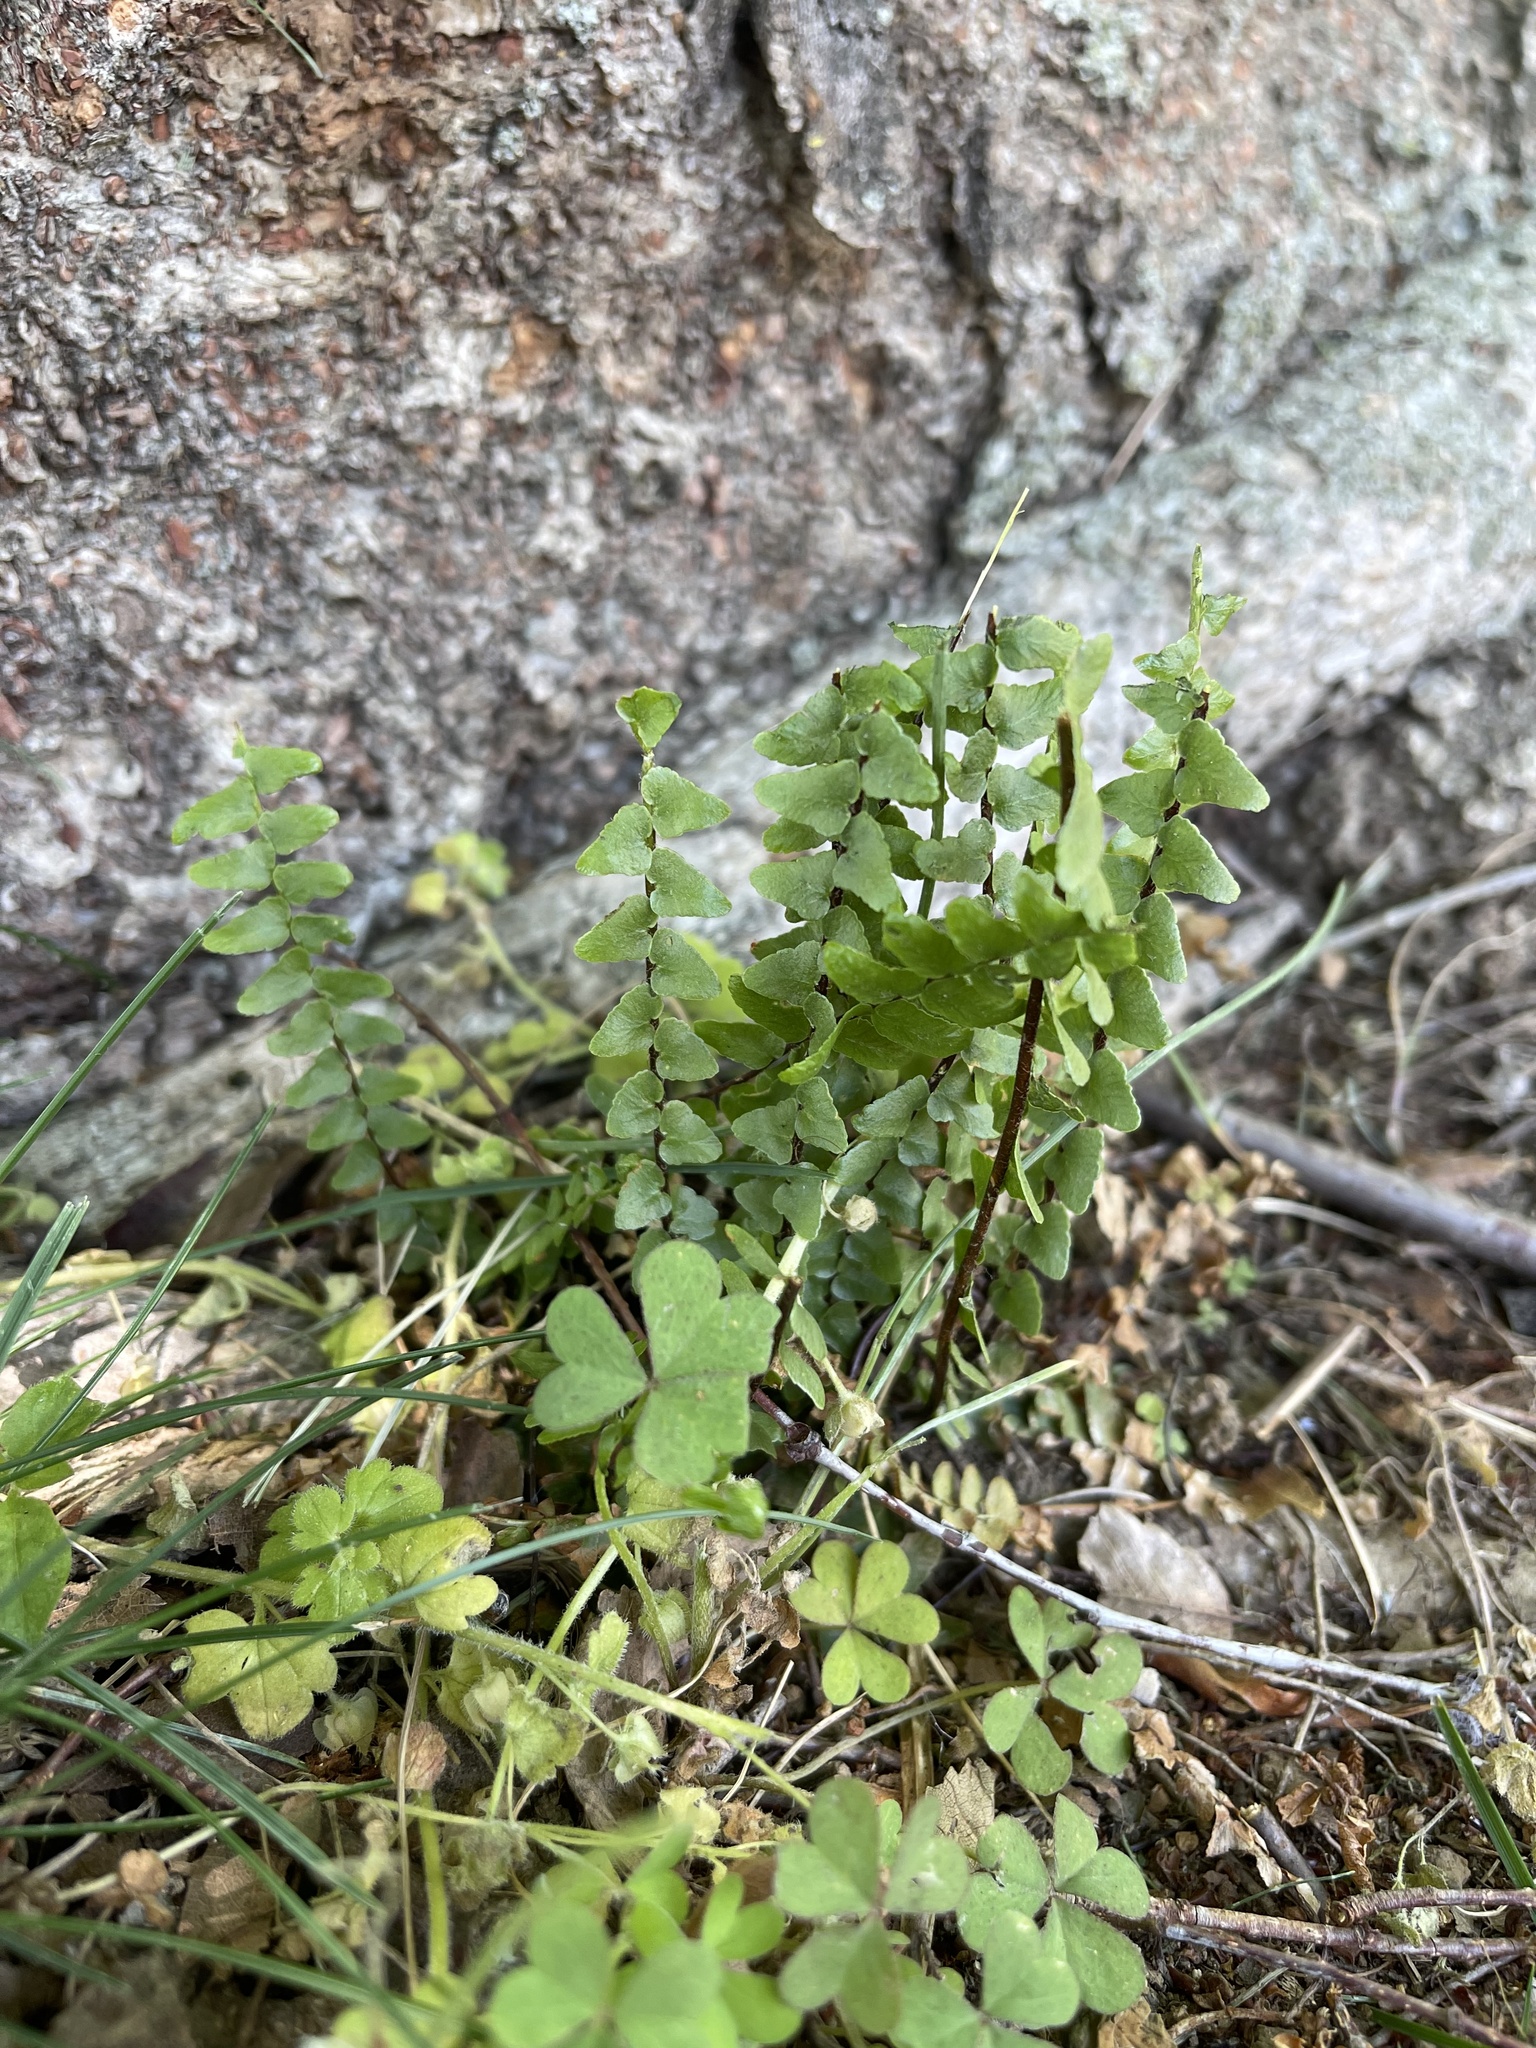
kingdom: Plantae
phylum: Tracheophyta
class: Polypodiopsida
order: Polypodiales
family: Aspleniaceae
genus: Asplenium
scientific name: Asplenium platyneuron
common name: Ebony spleenwort
